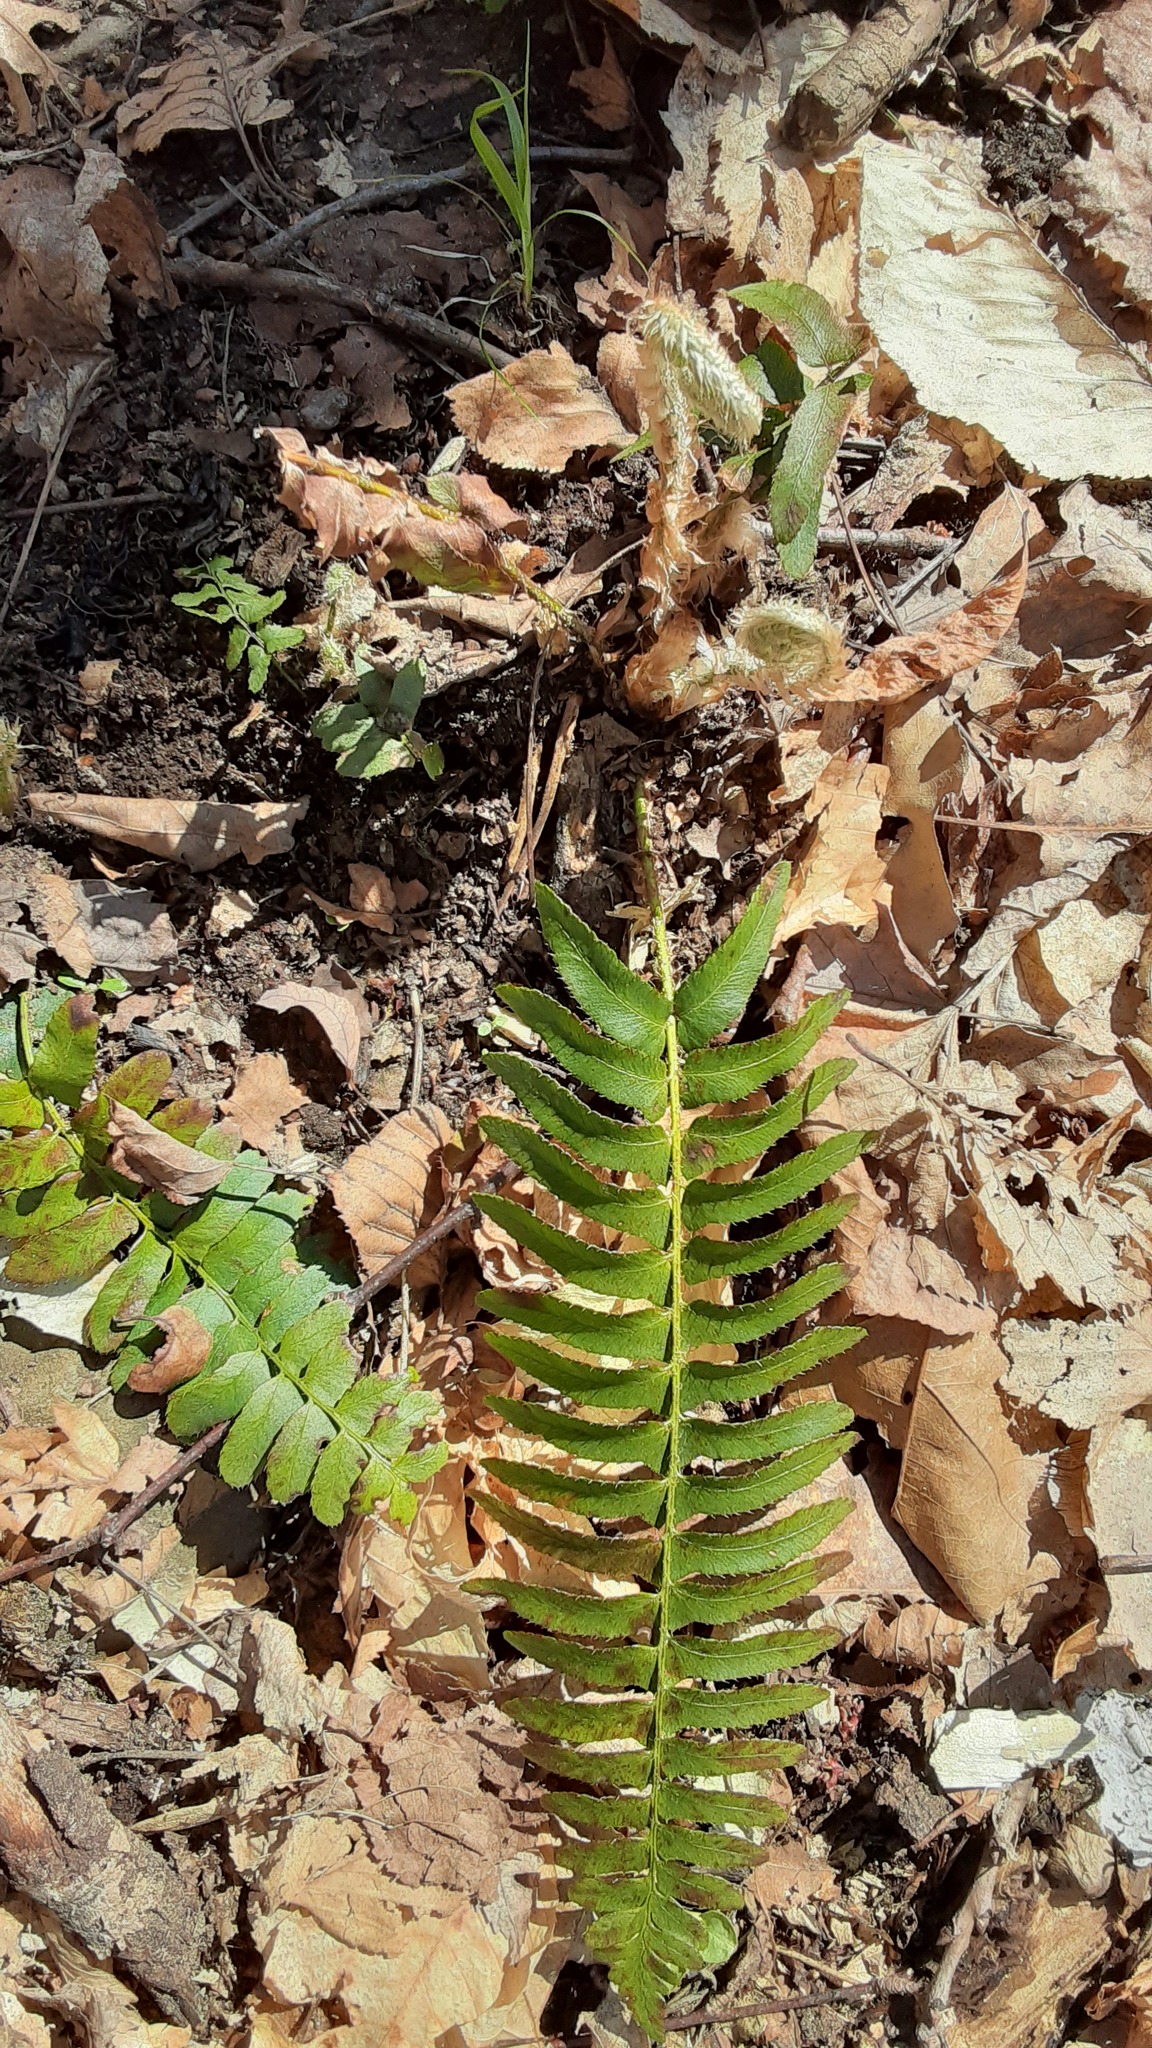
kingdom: Plantae
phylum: Tracheophyta
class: Polypodiopsida
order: Polypodiales
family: Dryopteridaceae
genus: Polystichum
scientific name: Polystichum acrostichoides
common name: Christmas fern
